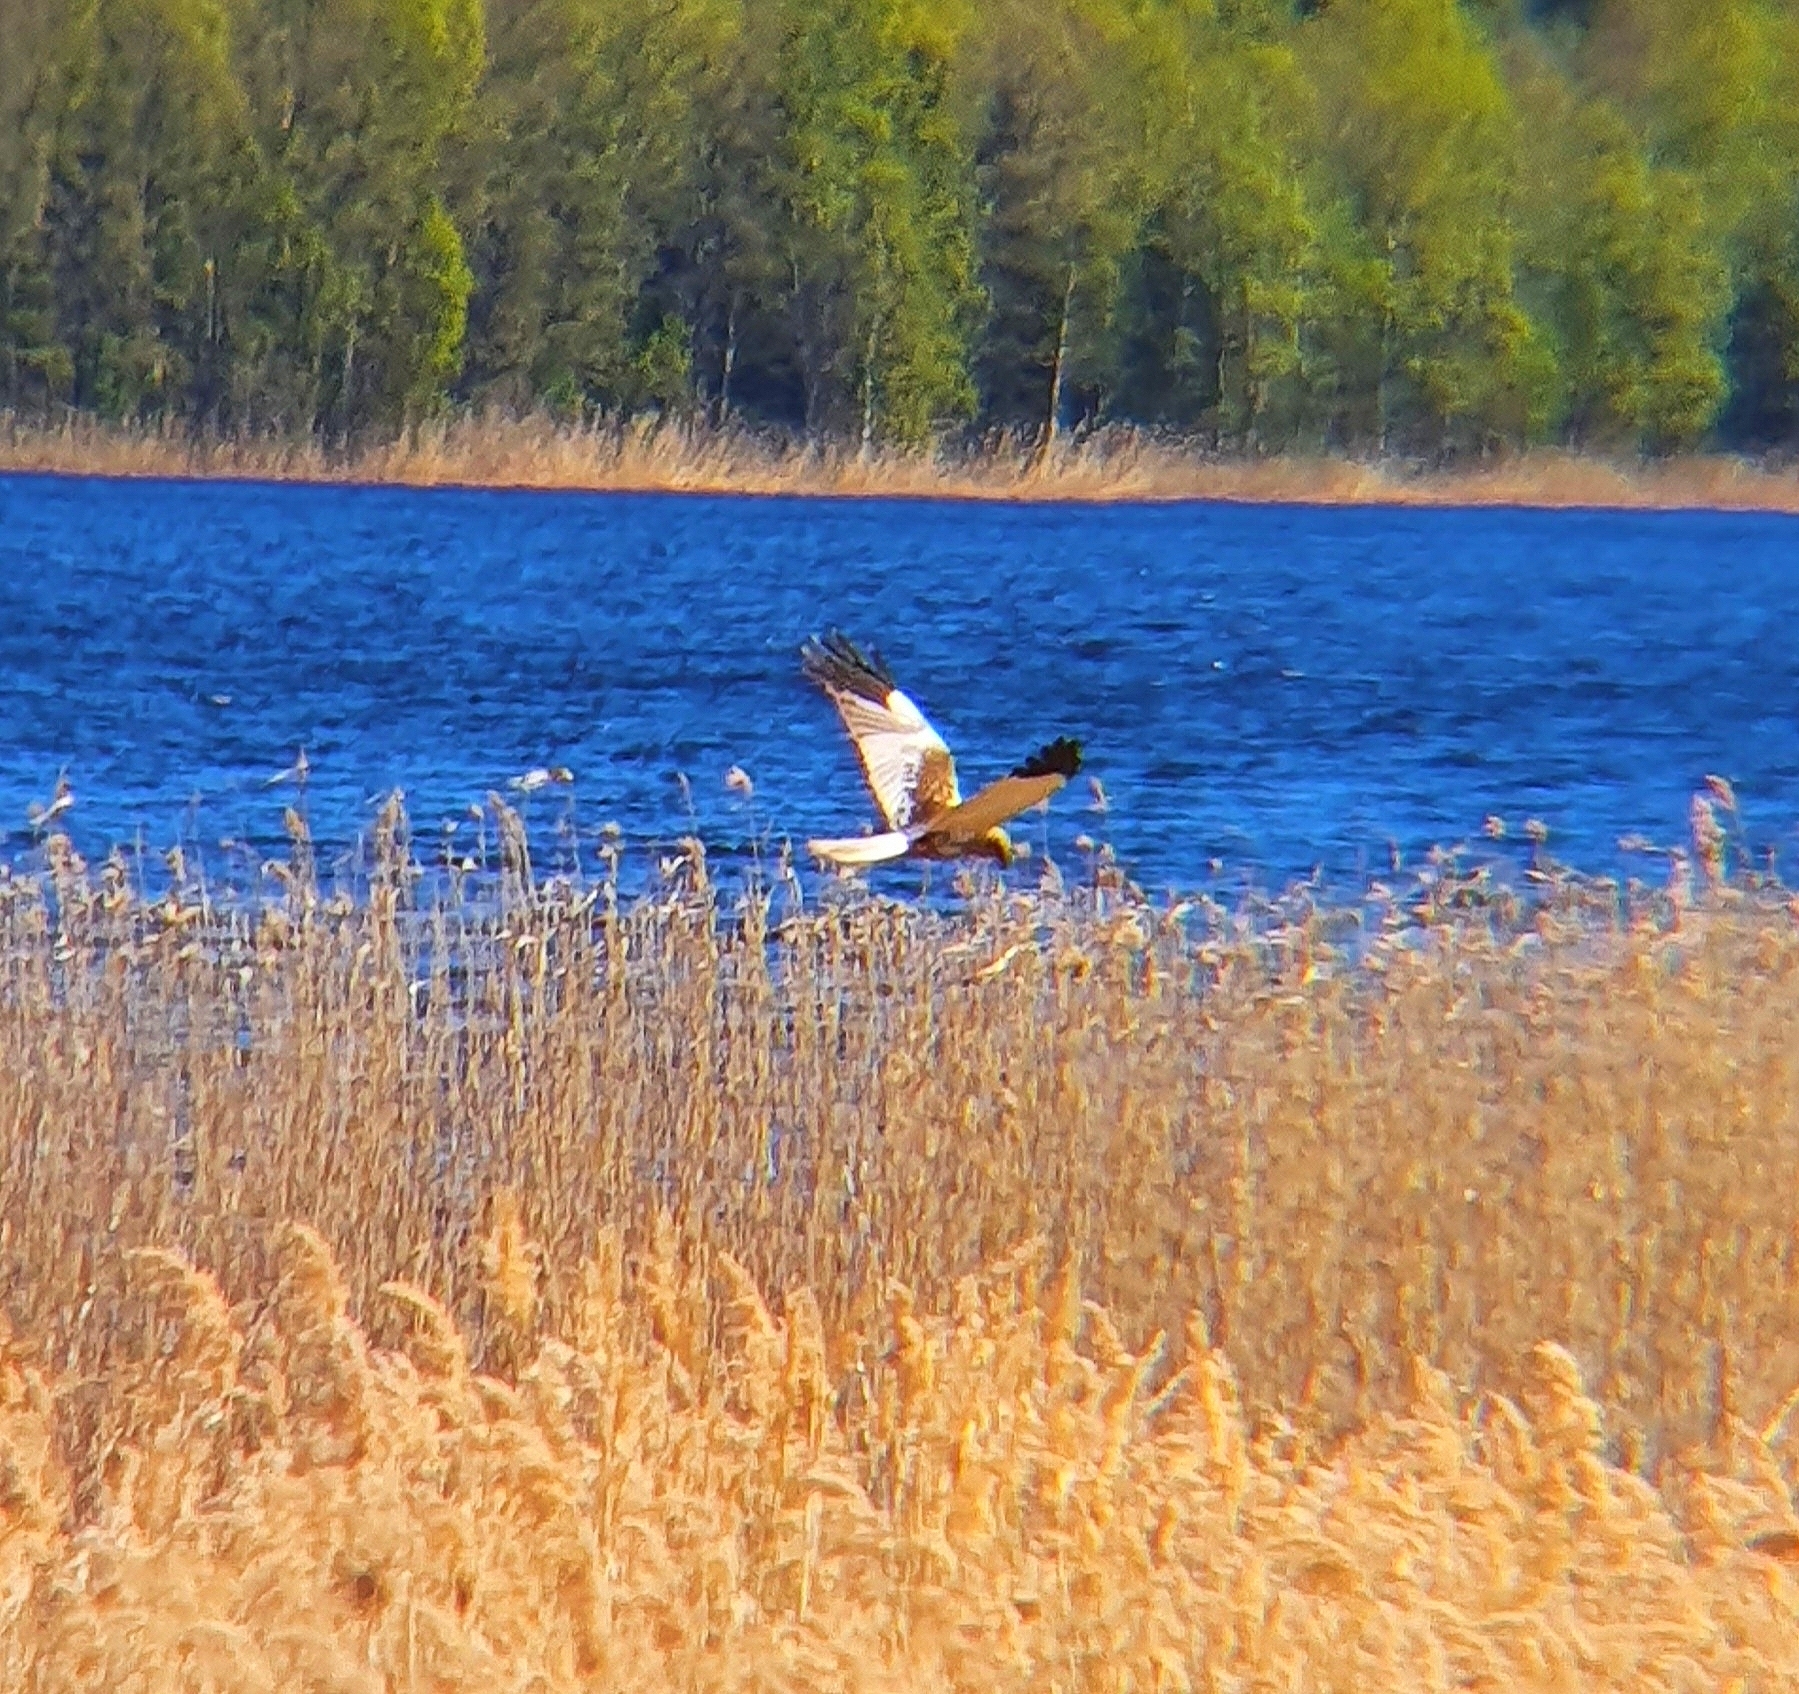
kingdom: Animalia
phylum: Chordata
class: Aves
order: Accipitriformes
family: Accipitridae
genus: Circus
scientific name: Circus aeruginosus
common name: Western marsh harrier
